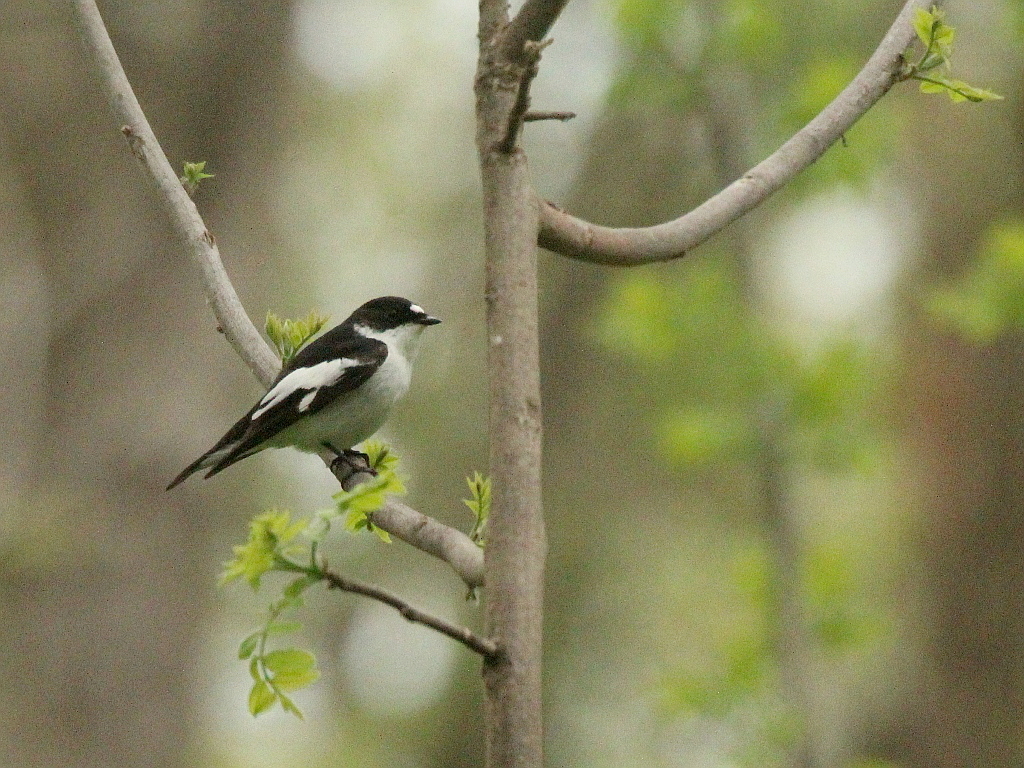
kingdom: Animalia
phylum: Chordata
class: Aves
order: Passeriformes
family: Muscicapidae
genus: Ficedula
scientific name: Ficedula semitorquata
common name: Semicollared flycatcher
